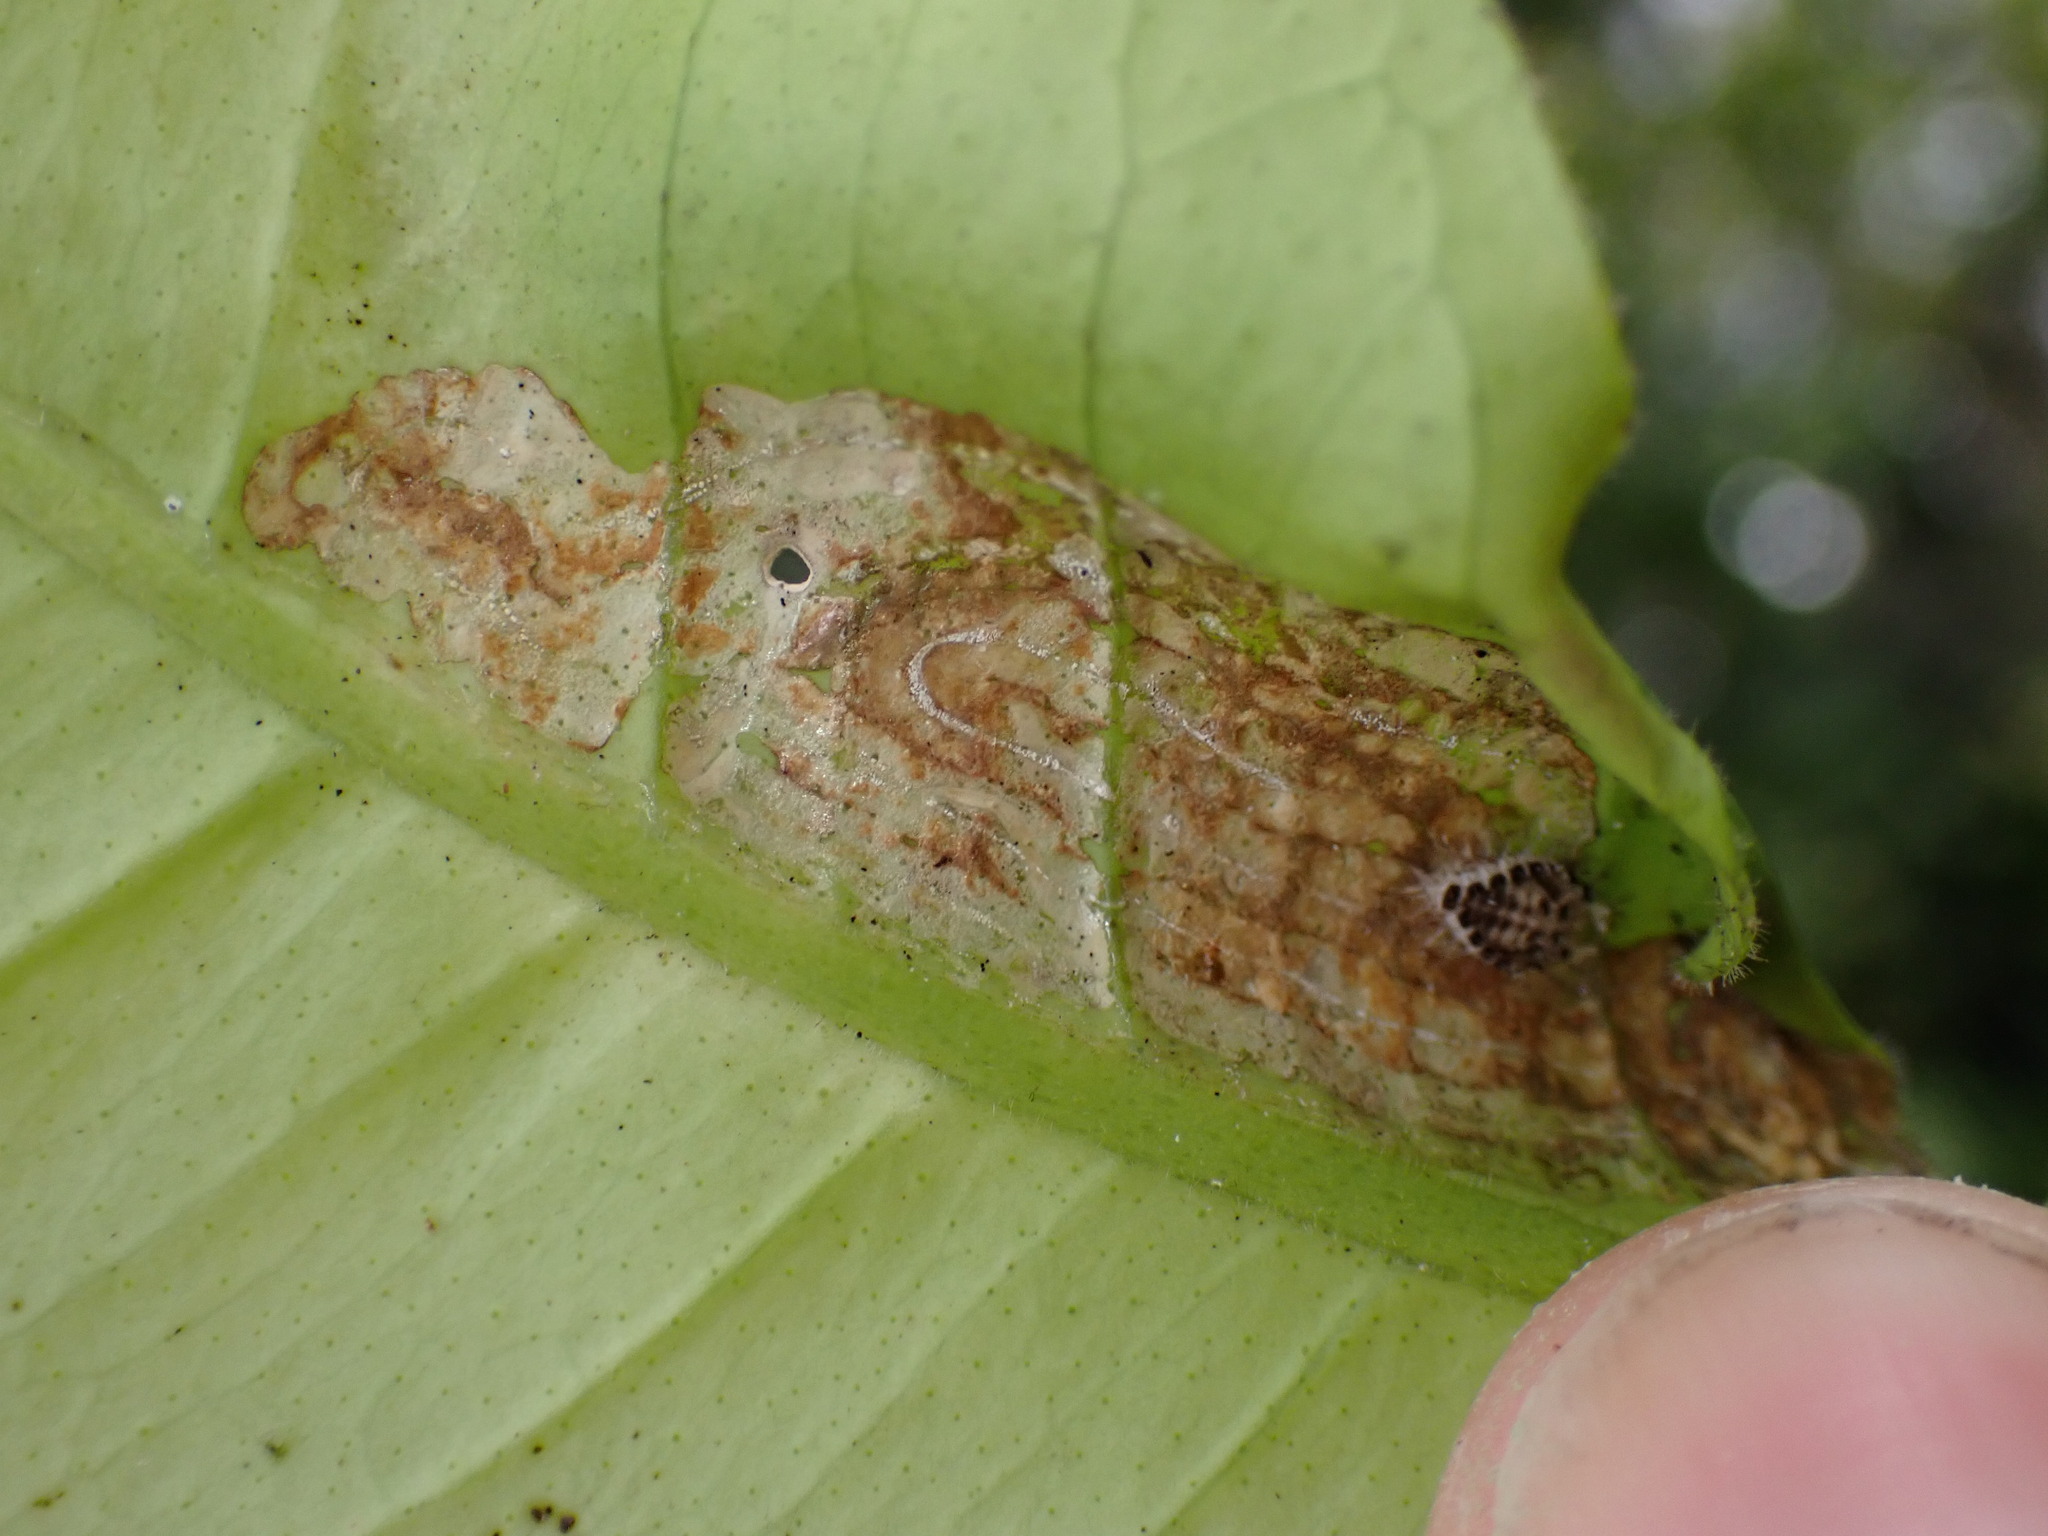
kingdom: Animalia
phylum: Arthropoda
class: Insecta
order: Lepidoptera
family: Gracillariidae
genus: Phyllocnistis
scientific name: Phyllocnistis citrella
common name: Citrus leafminer
